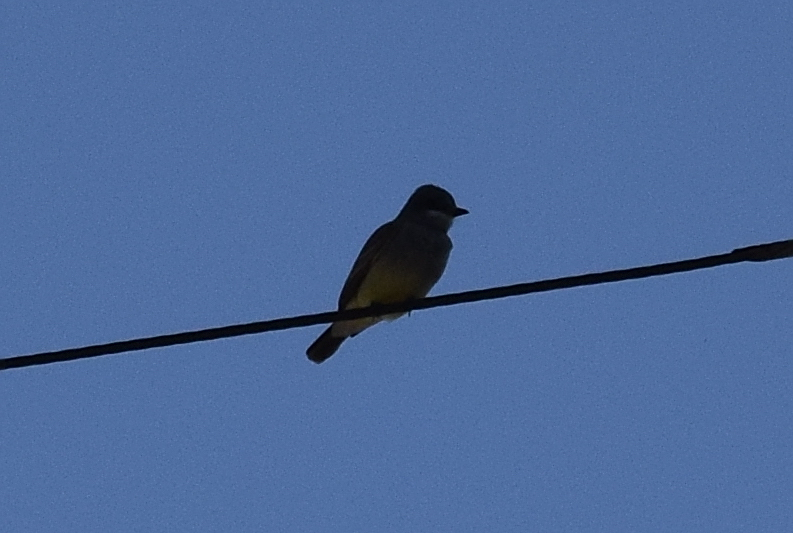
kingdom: Animalia
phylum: Chordata
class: Aves
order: Passeriformes
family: Tyrannidae
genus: Tyrannus
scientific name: Tyrannus vociferans
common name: Cassin's kingbird
